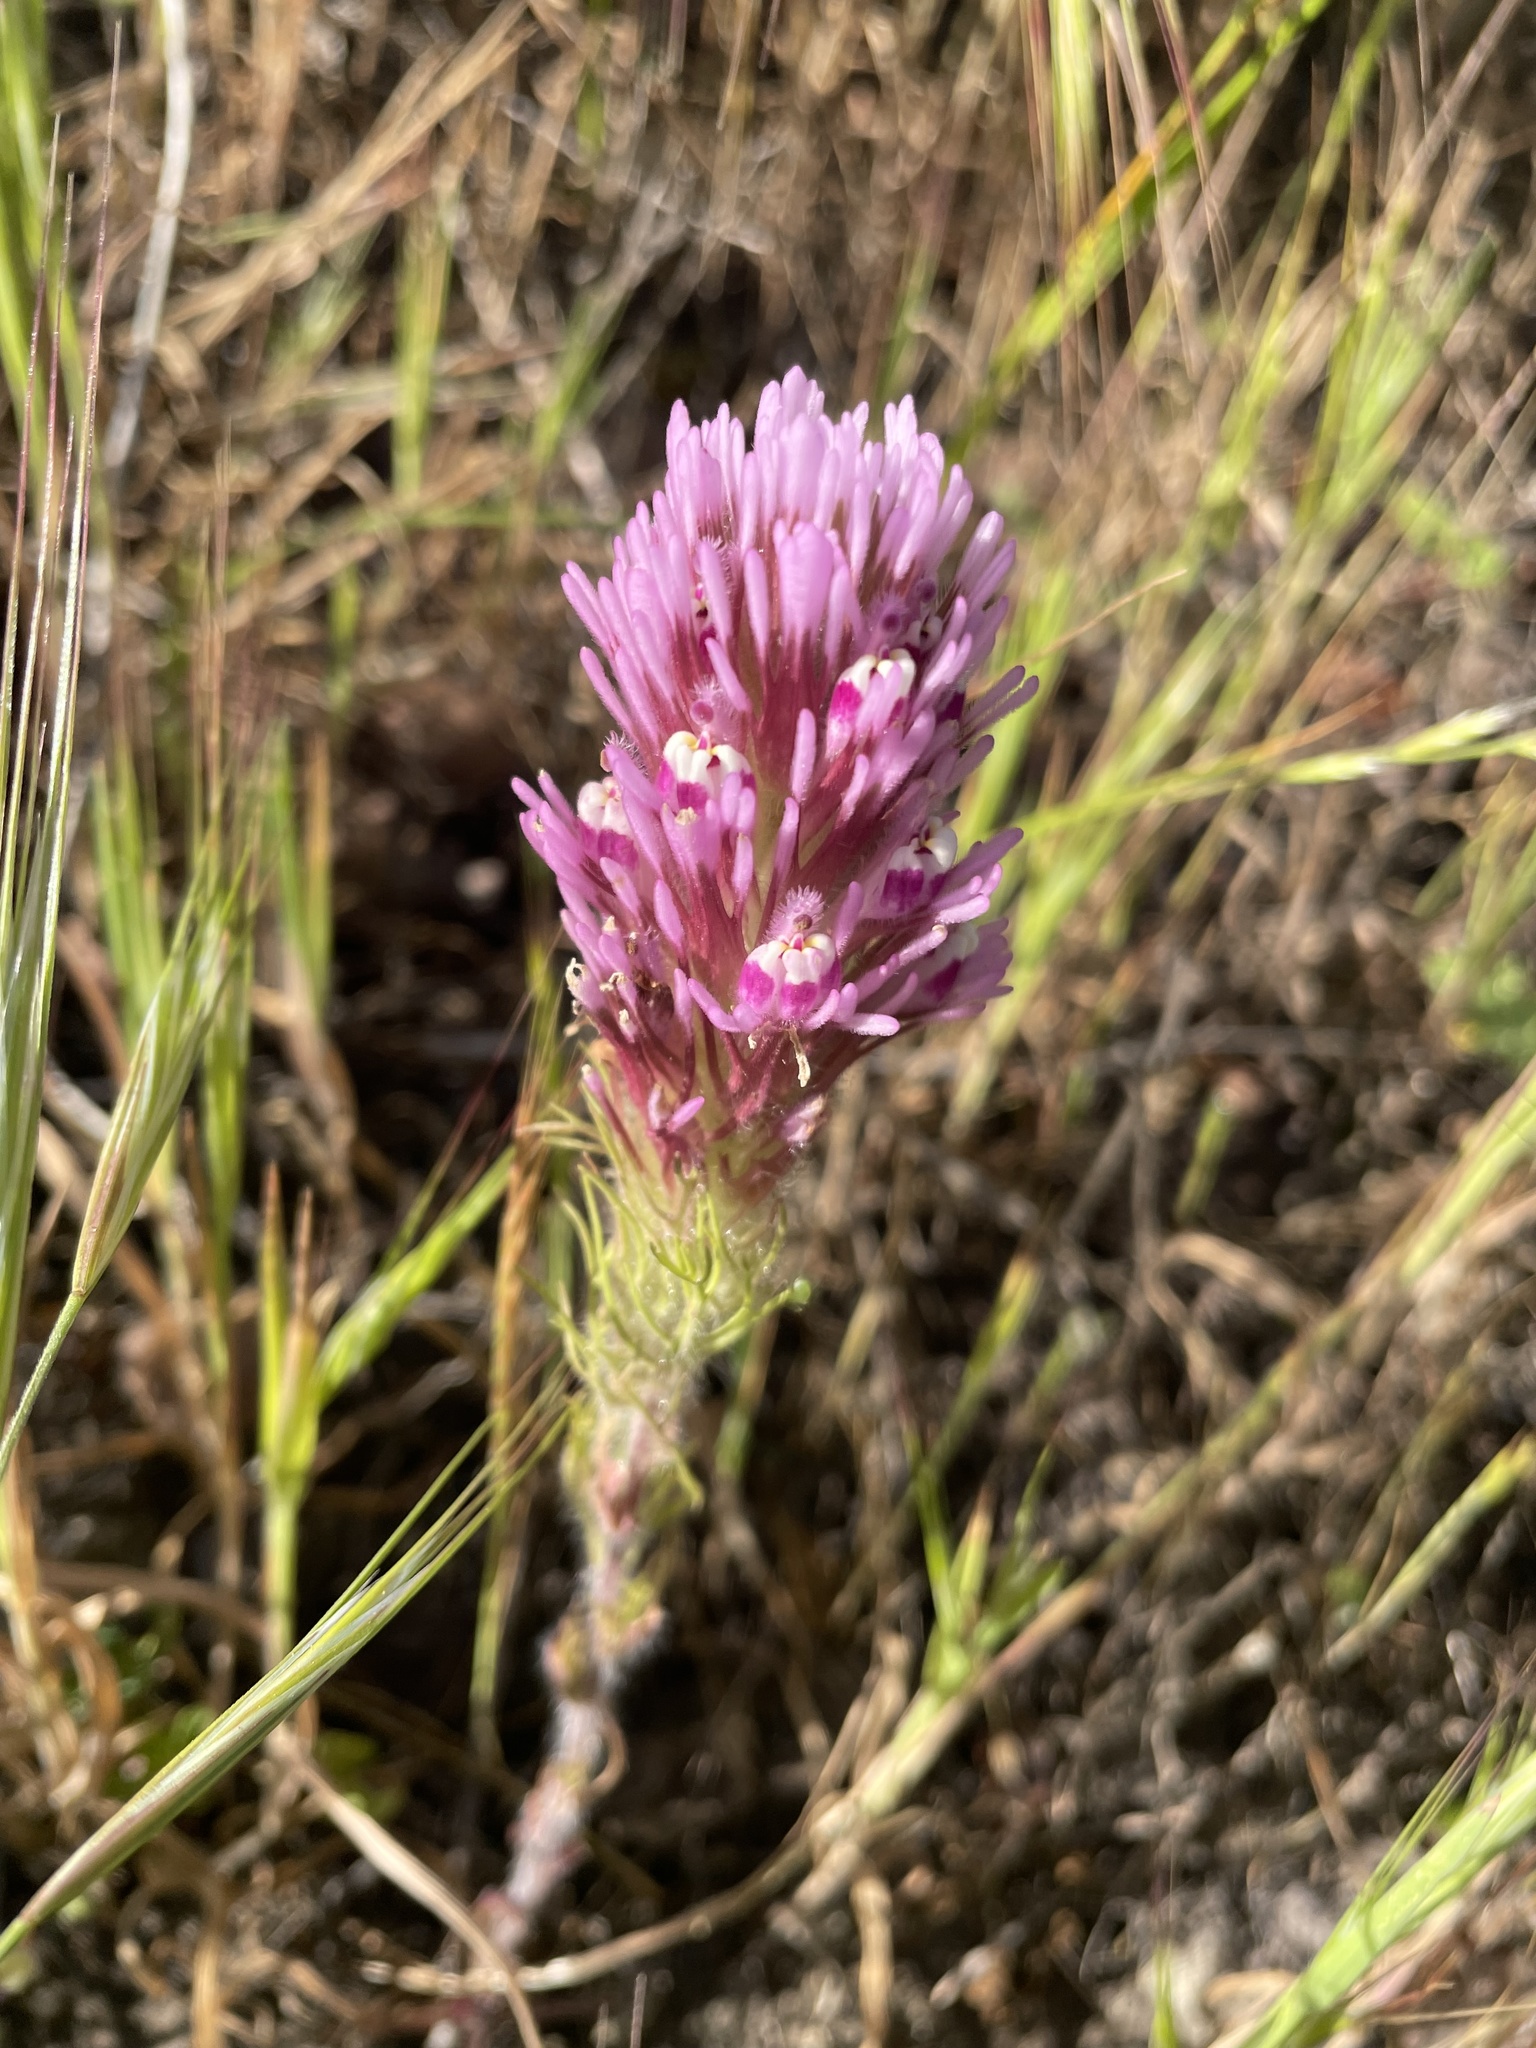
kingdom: Plantae
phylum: Tracheophyta
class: Magnoliopsida
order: Lamiales
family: Orobanchaceae
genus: Castilleja
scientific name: Castilleja exserta
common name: Purple owl-clover
